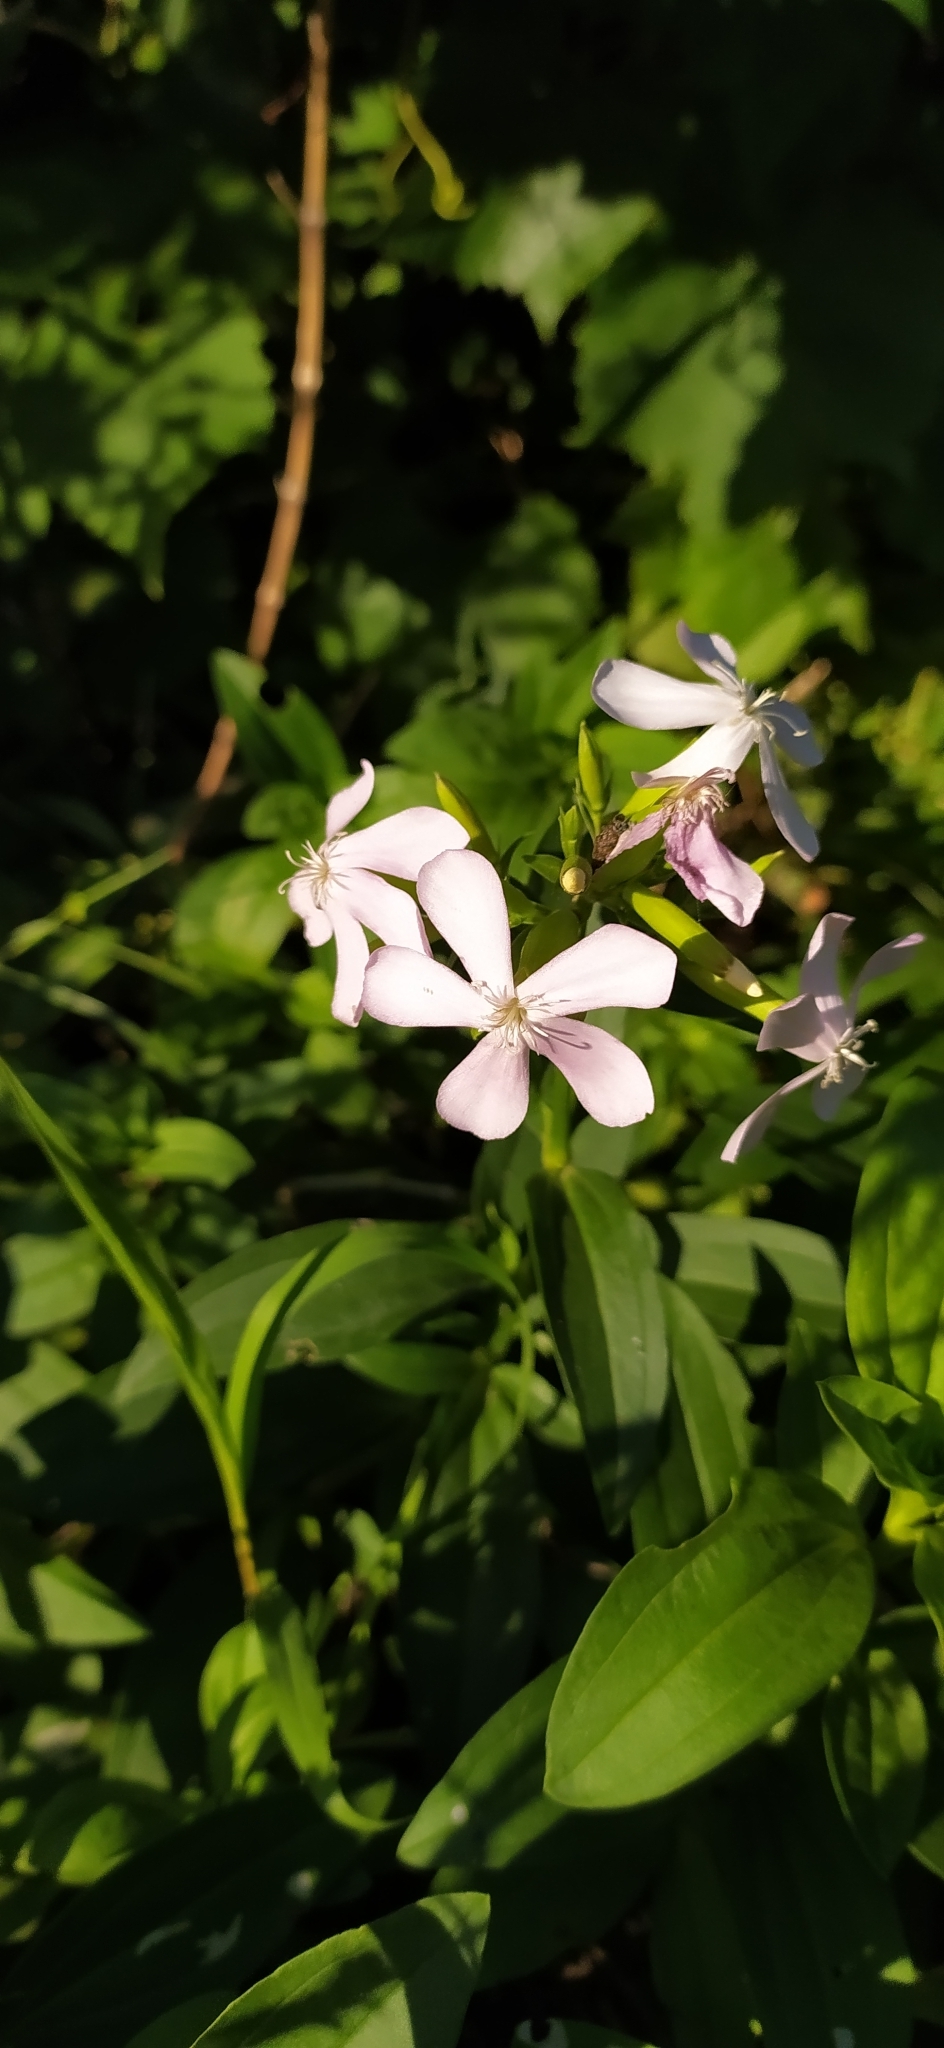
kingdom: Plantae
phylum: Tracheophyta
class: Magnoliopsida
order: Caryophyllales
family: Caryophyllaceae
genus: Saponaria
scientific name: Saponaria officinalis
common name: Soapwort
